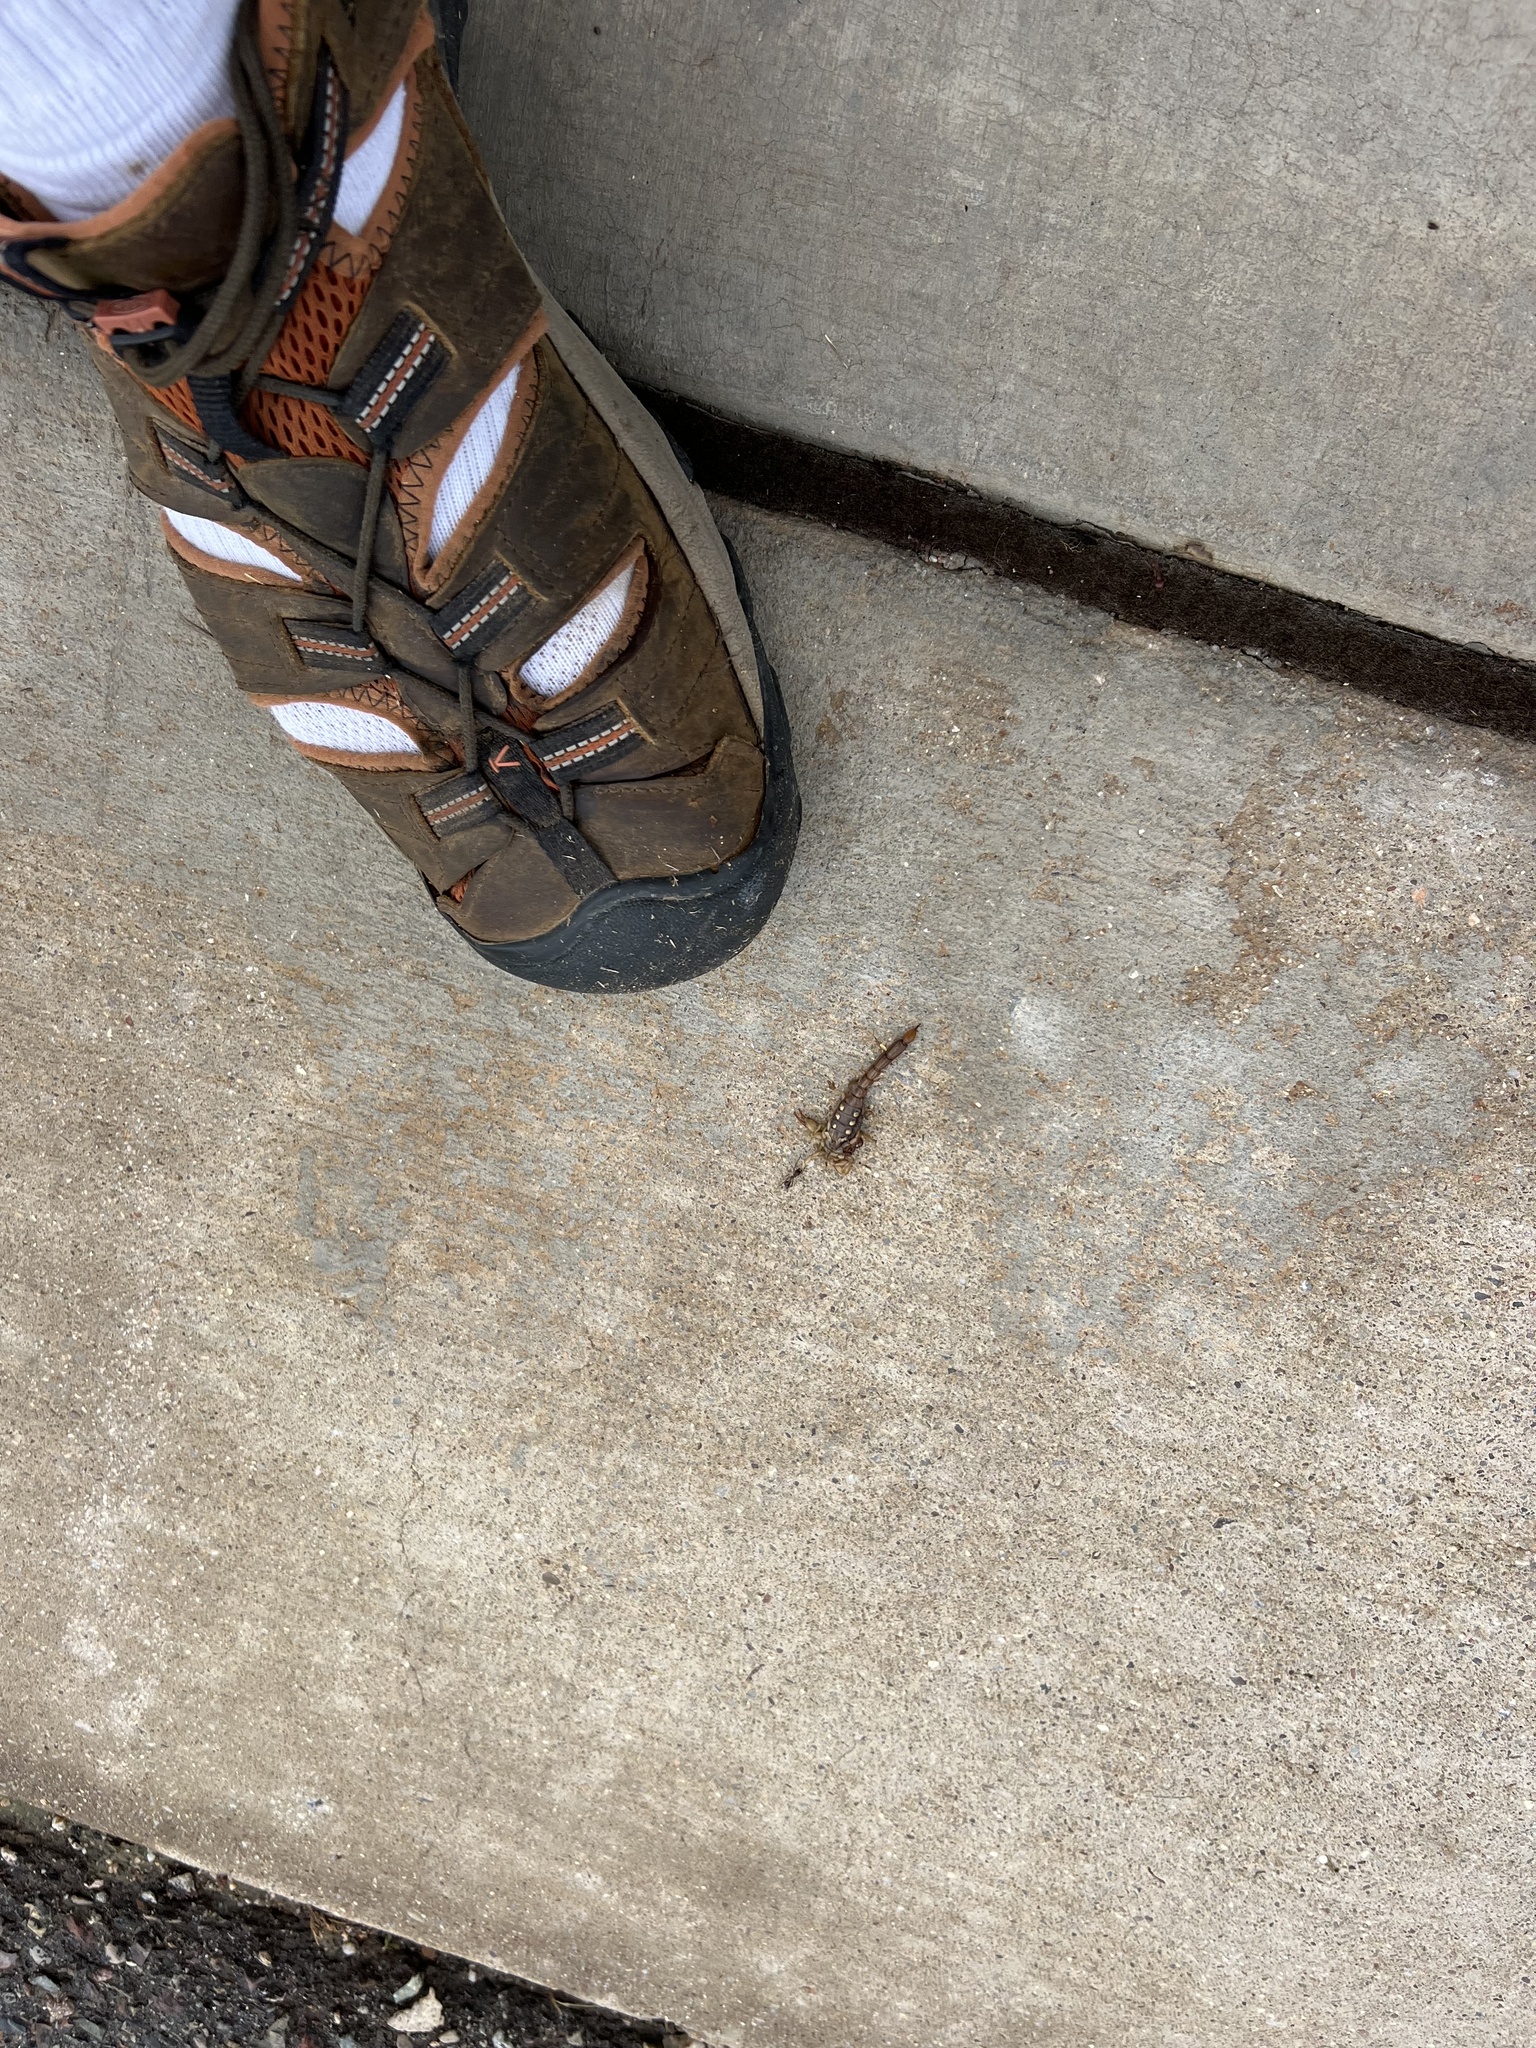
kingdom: Animalia
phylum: Arthropoda
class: Arachnida
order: Scorpiones
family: Vaejovidae
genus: Paravaejovis
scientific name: Paravaejovis spinigerus
